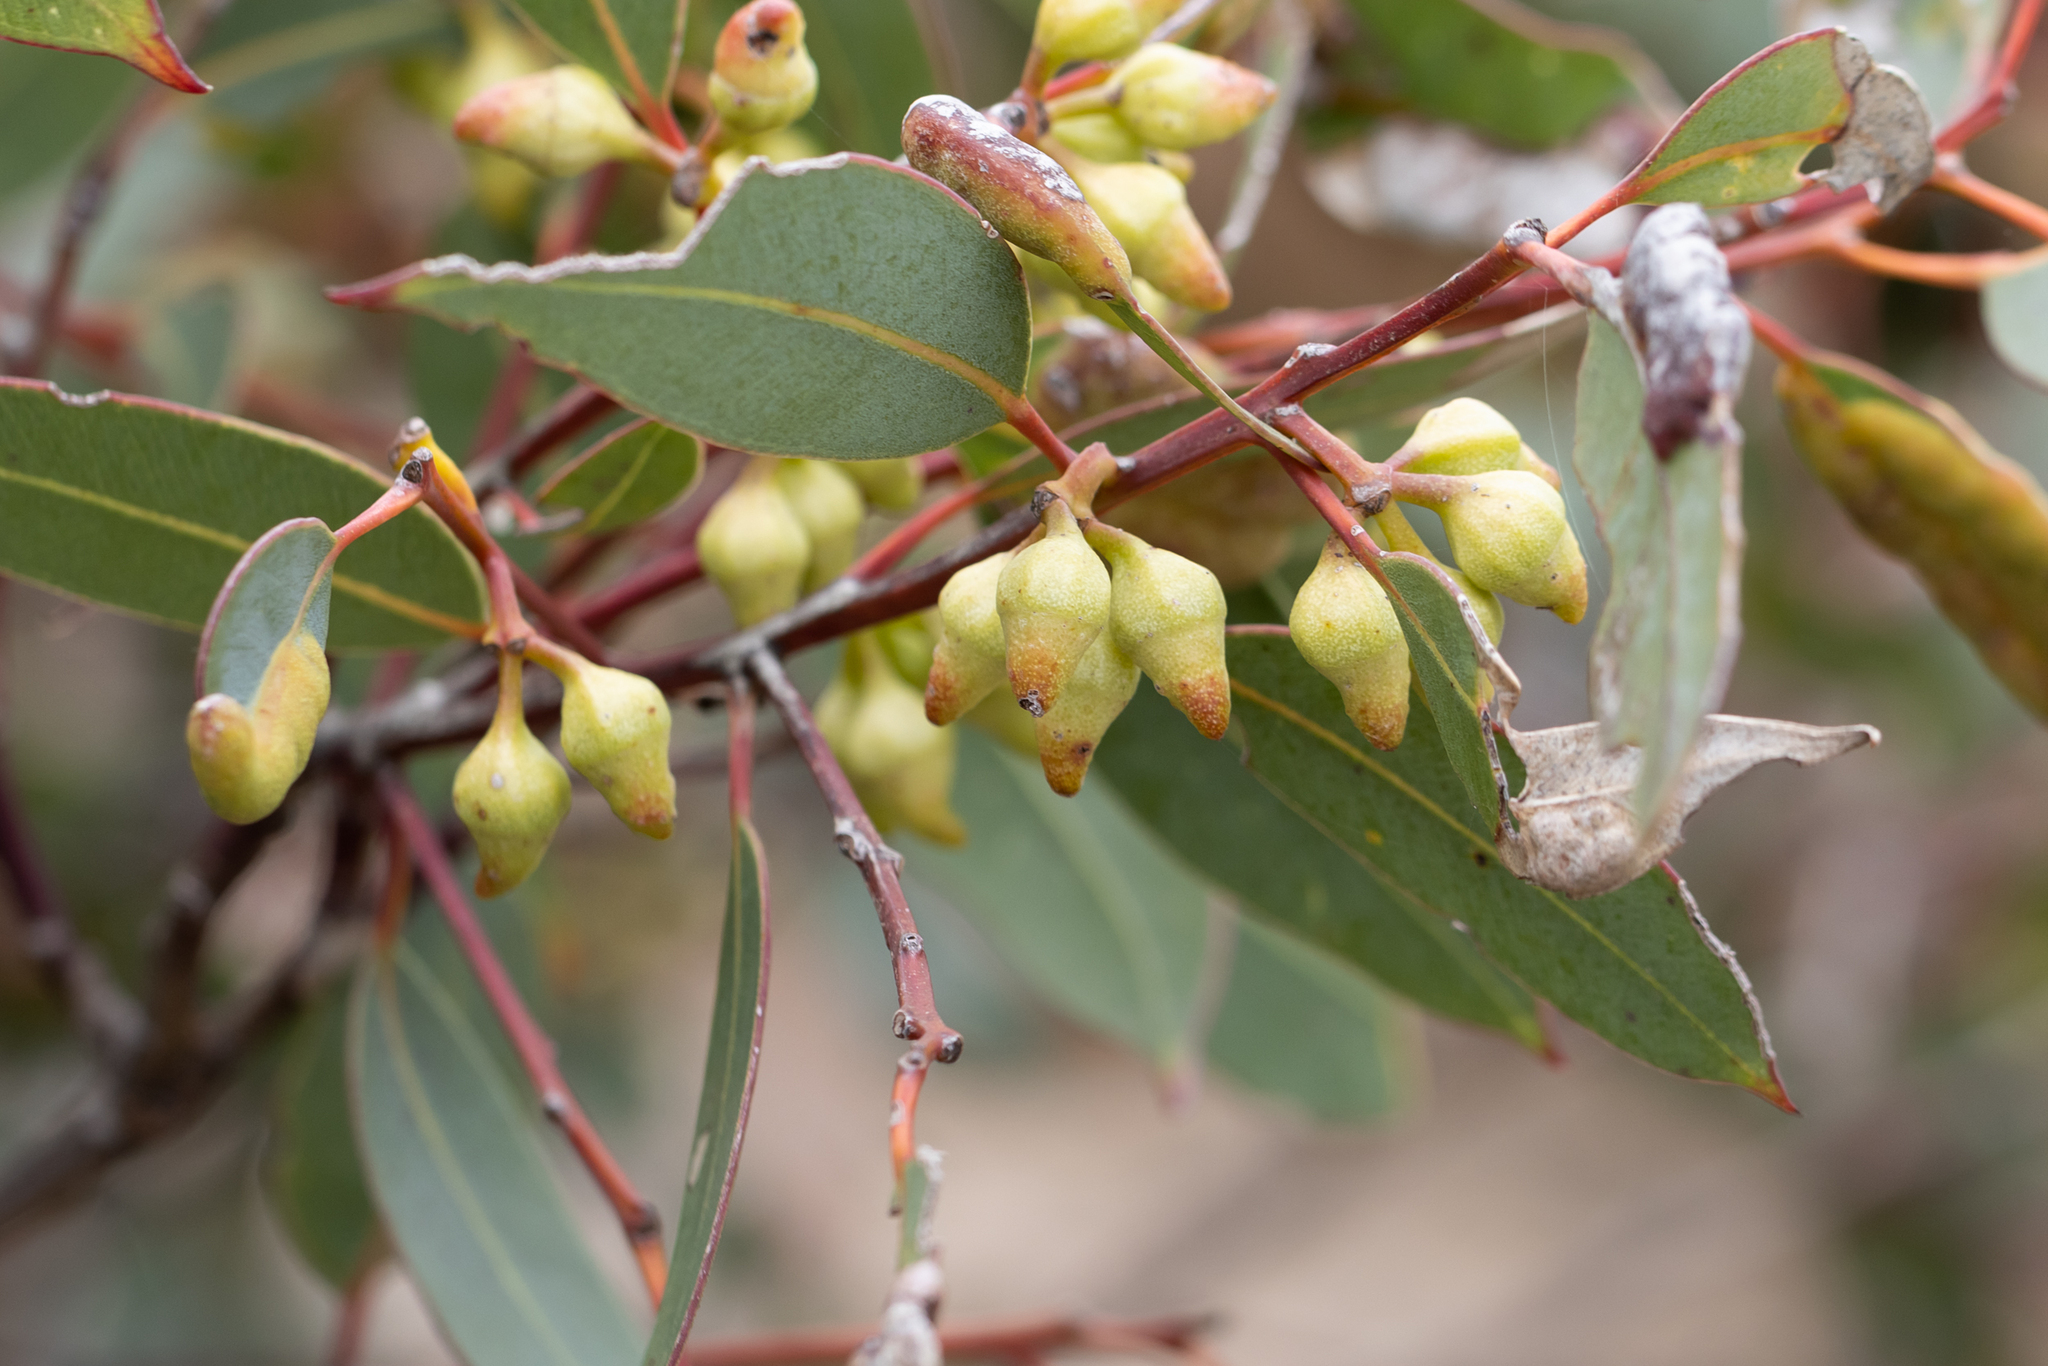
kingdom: Plantae
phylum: Tracheophyta
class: Magnoliopsida
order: Myrtales
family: Myrtaceae
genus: Eucalyptus
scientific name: Eucalyptus ecostata
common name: Coastal silver mallee
